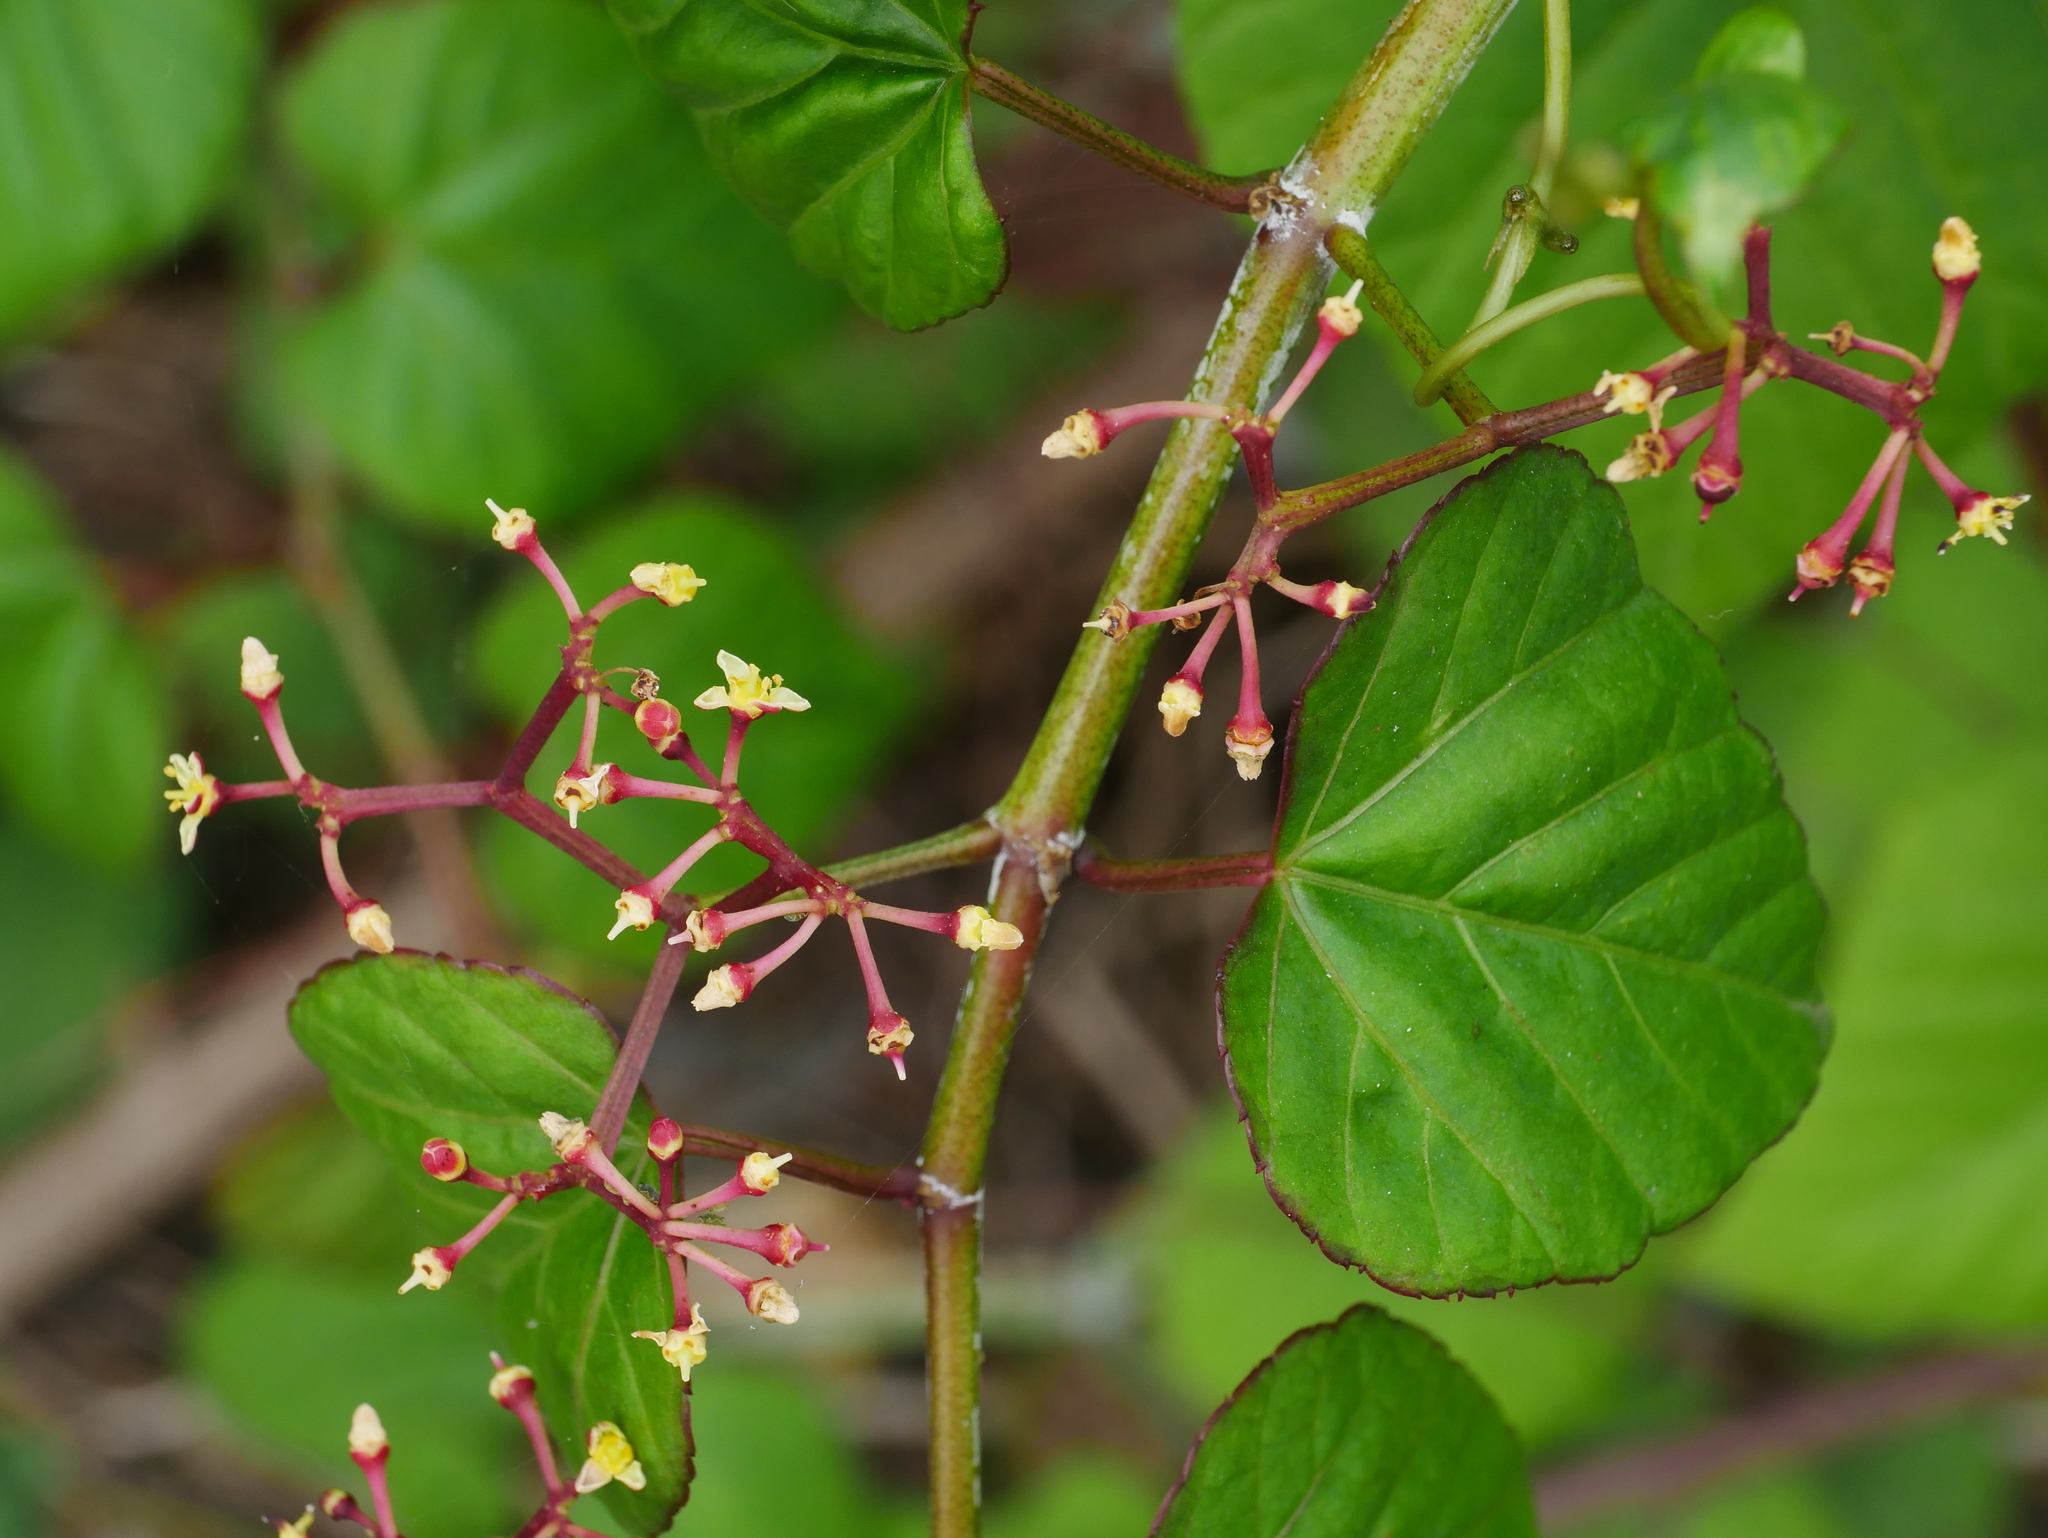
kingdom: Plantae
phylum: Tracheophyta
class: Magnoliopsida
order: Vitales
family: Vitaceae
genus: Cissus
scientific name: Cissus modeccoides
